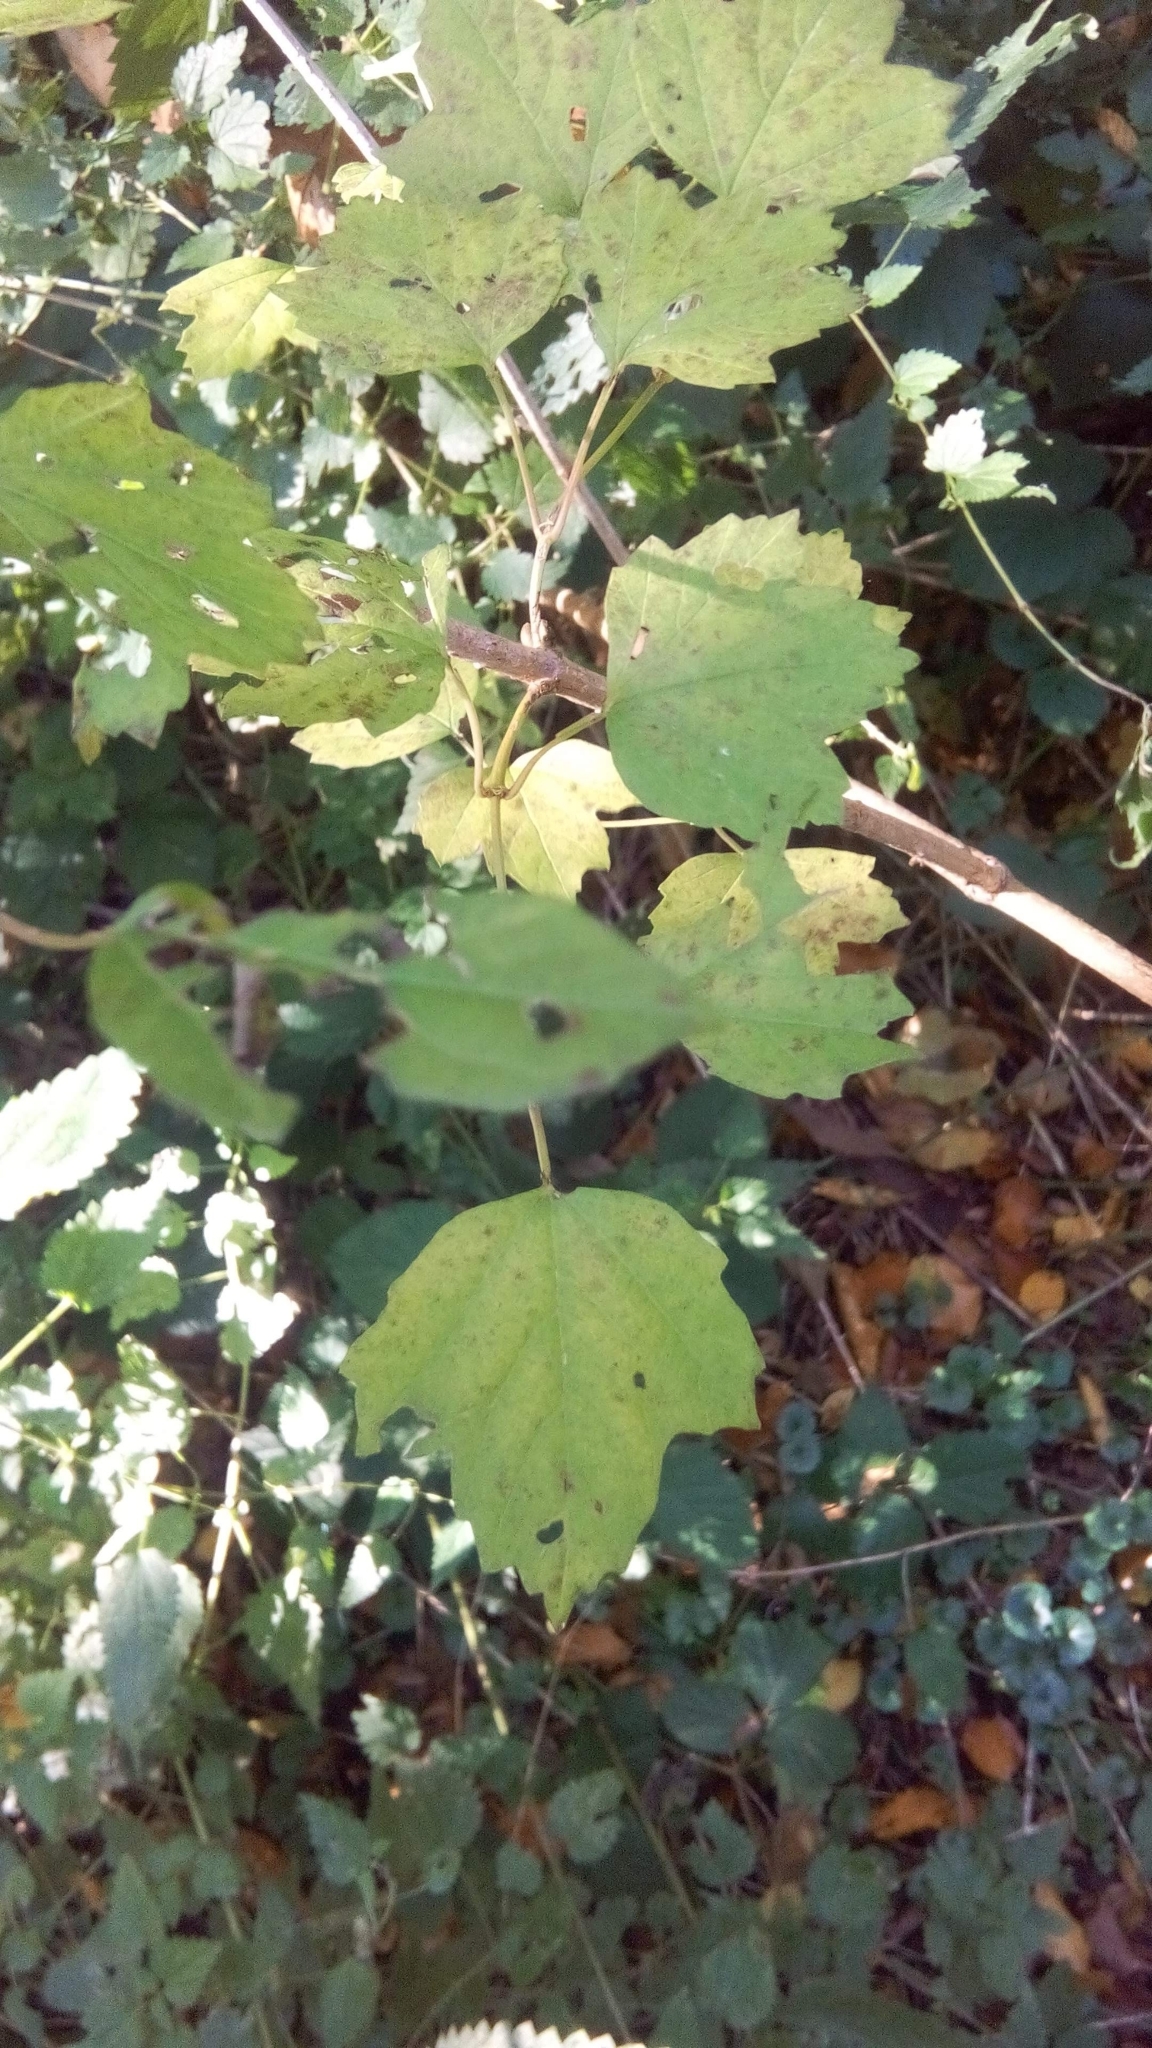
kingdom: Plantae
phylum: Tracheophyta
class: Magnoliopsida
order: Dipsacales
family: Viburnaceae
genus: Viburnum
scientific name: Viburnum opulus
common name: Guelder-rose
